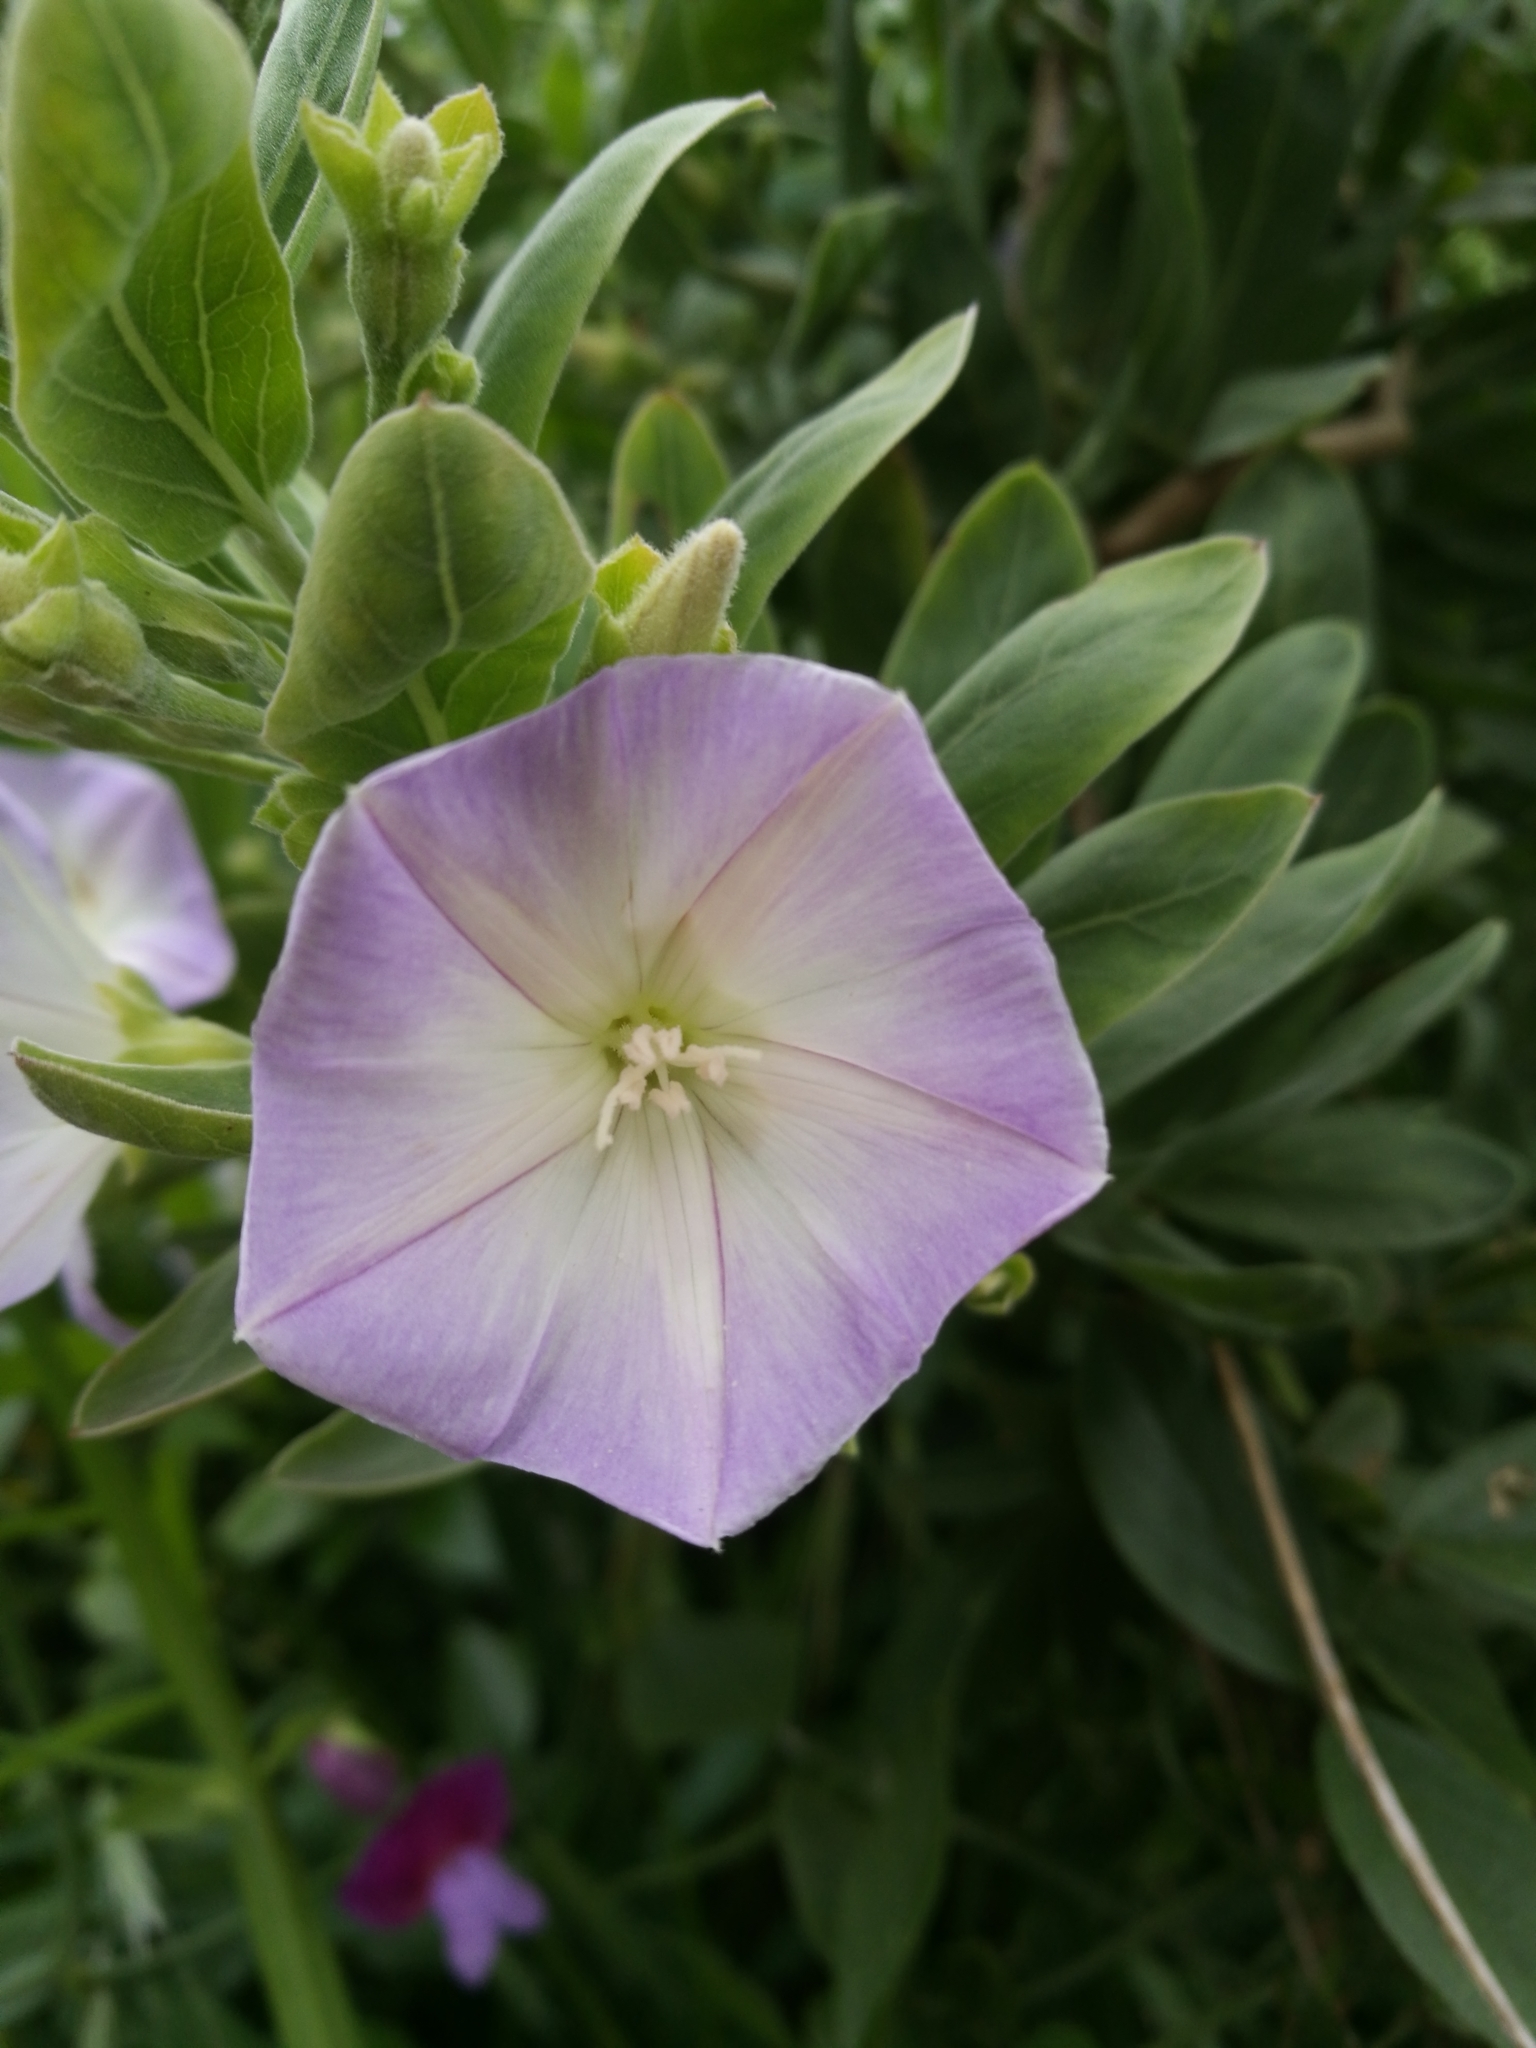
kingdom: Plantae
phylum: Tracheophyta
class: Magnoliopsida
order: Solanales
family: Convolvulaceae
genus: Convolvulus
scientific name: Convolvulus fruticulosus
